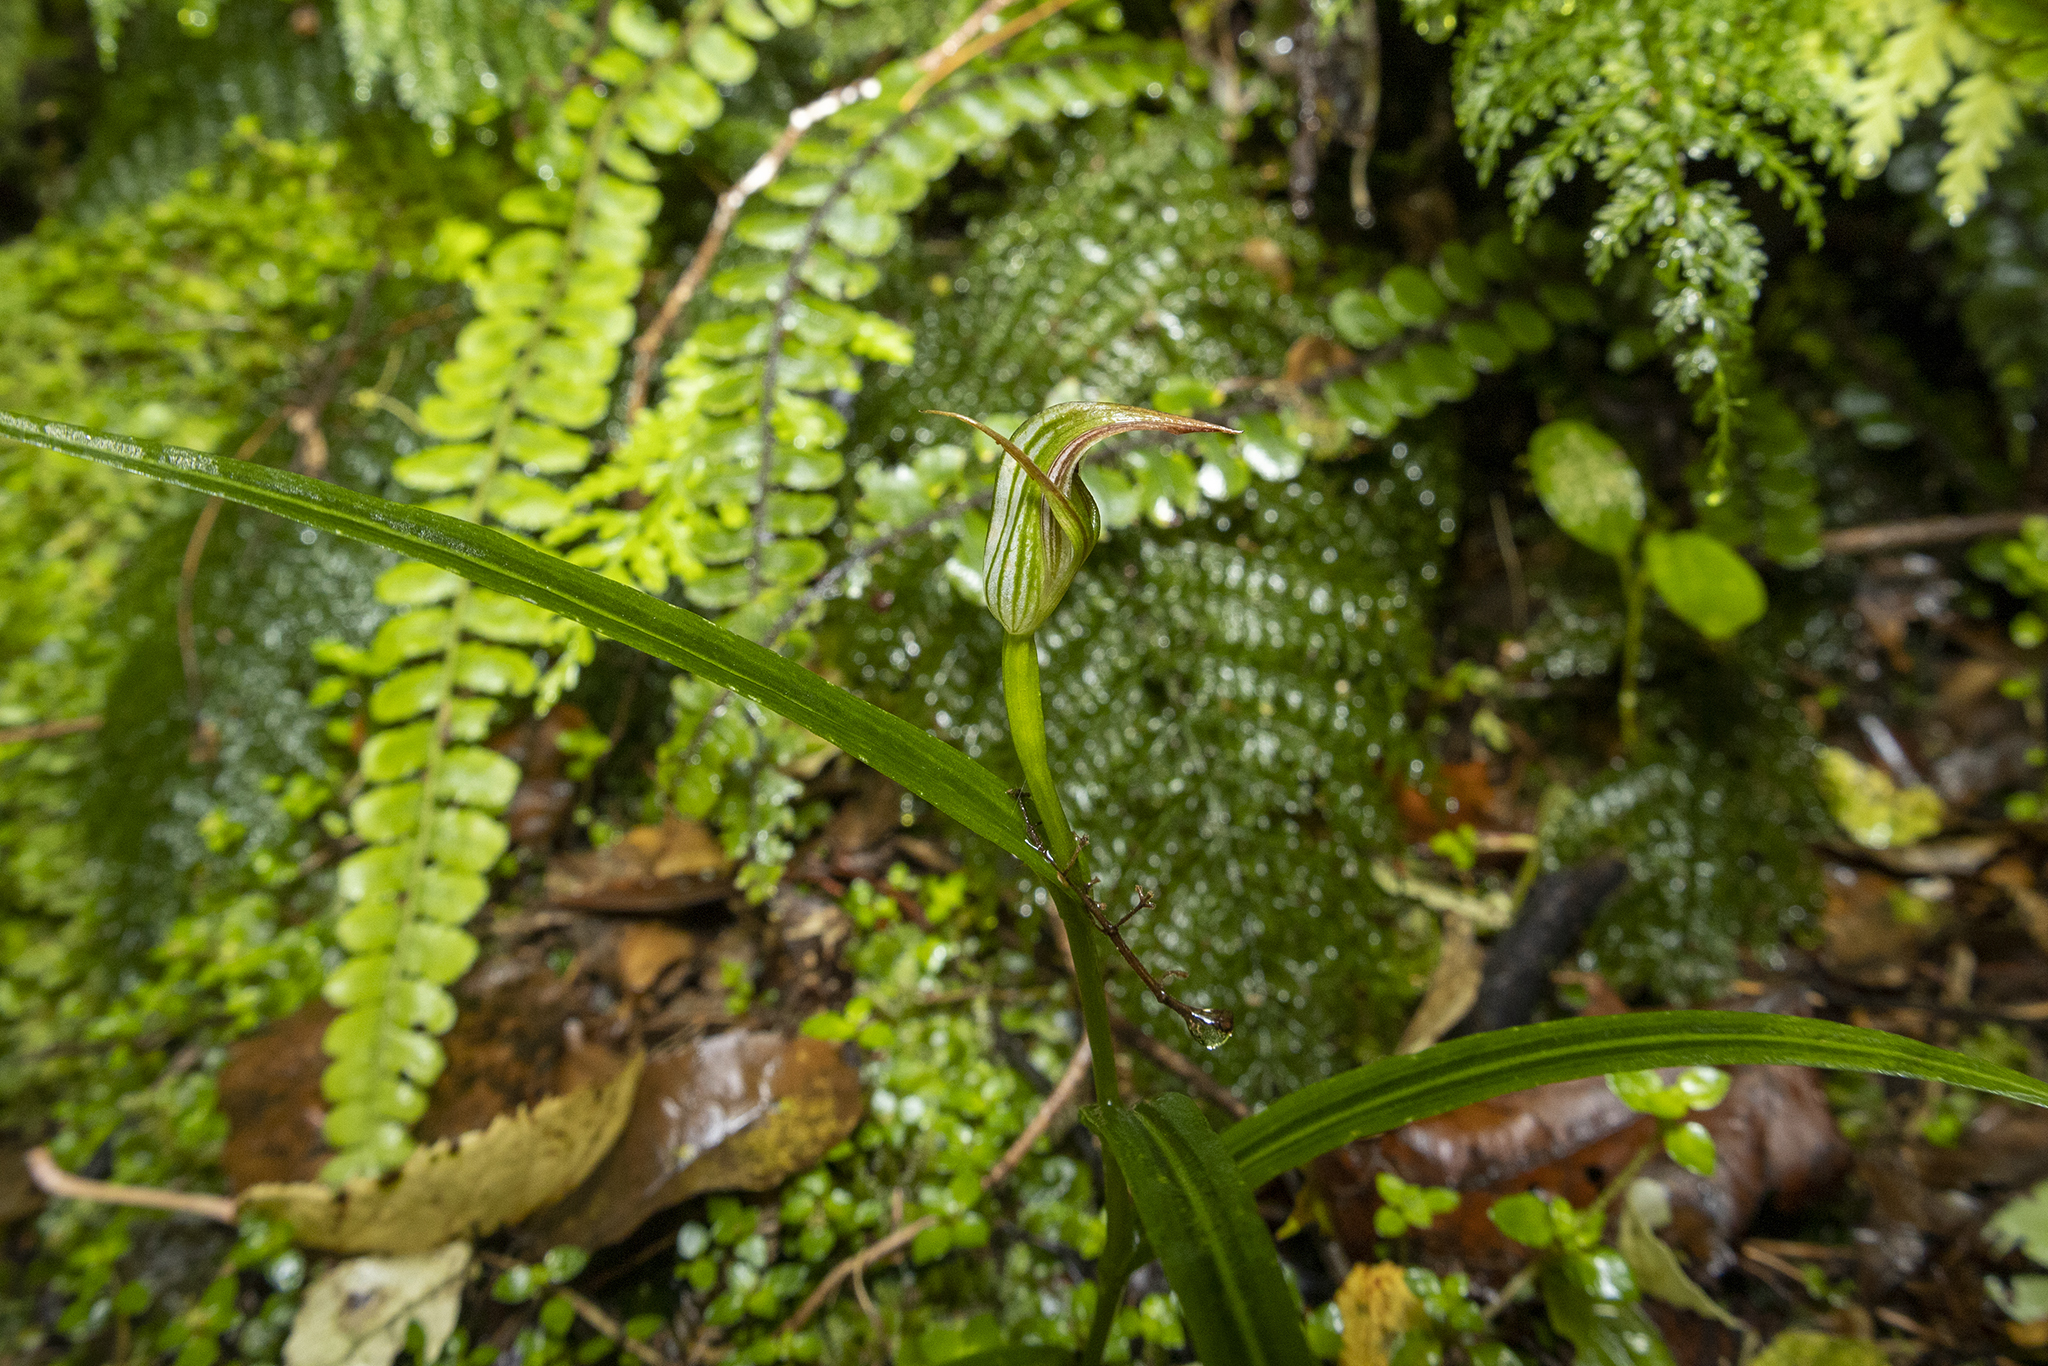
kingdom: Plantae
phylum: Tracheophyta
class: Liliopsida
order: Asparagales
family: Orchidaceae
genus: Pterostylis
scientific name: Pterostylis irsoniana
